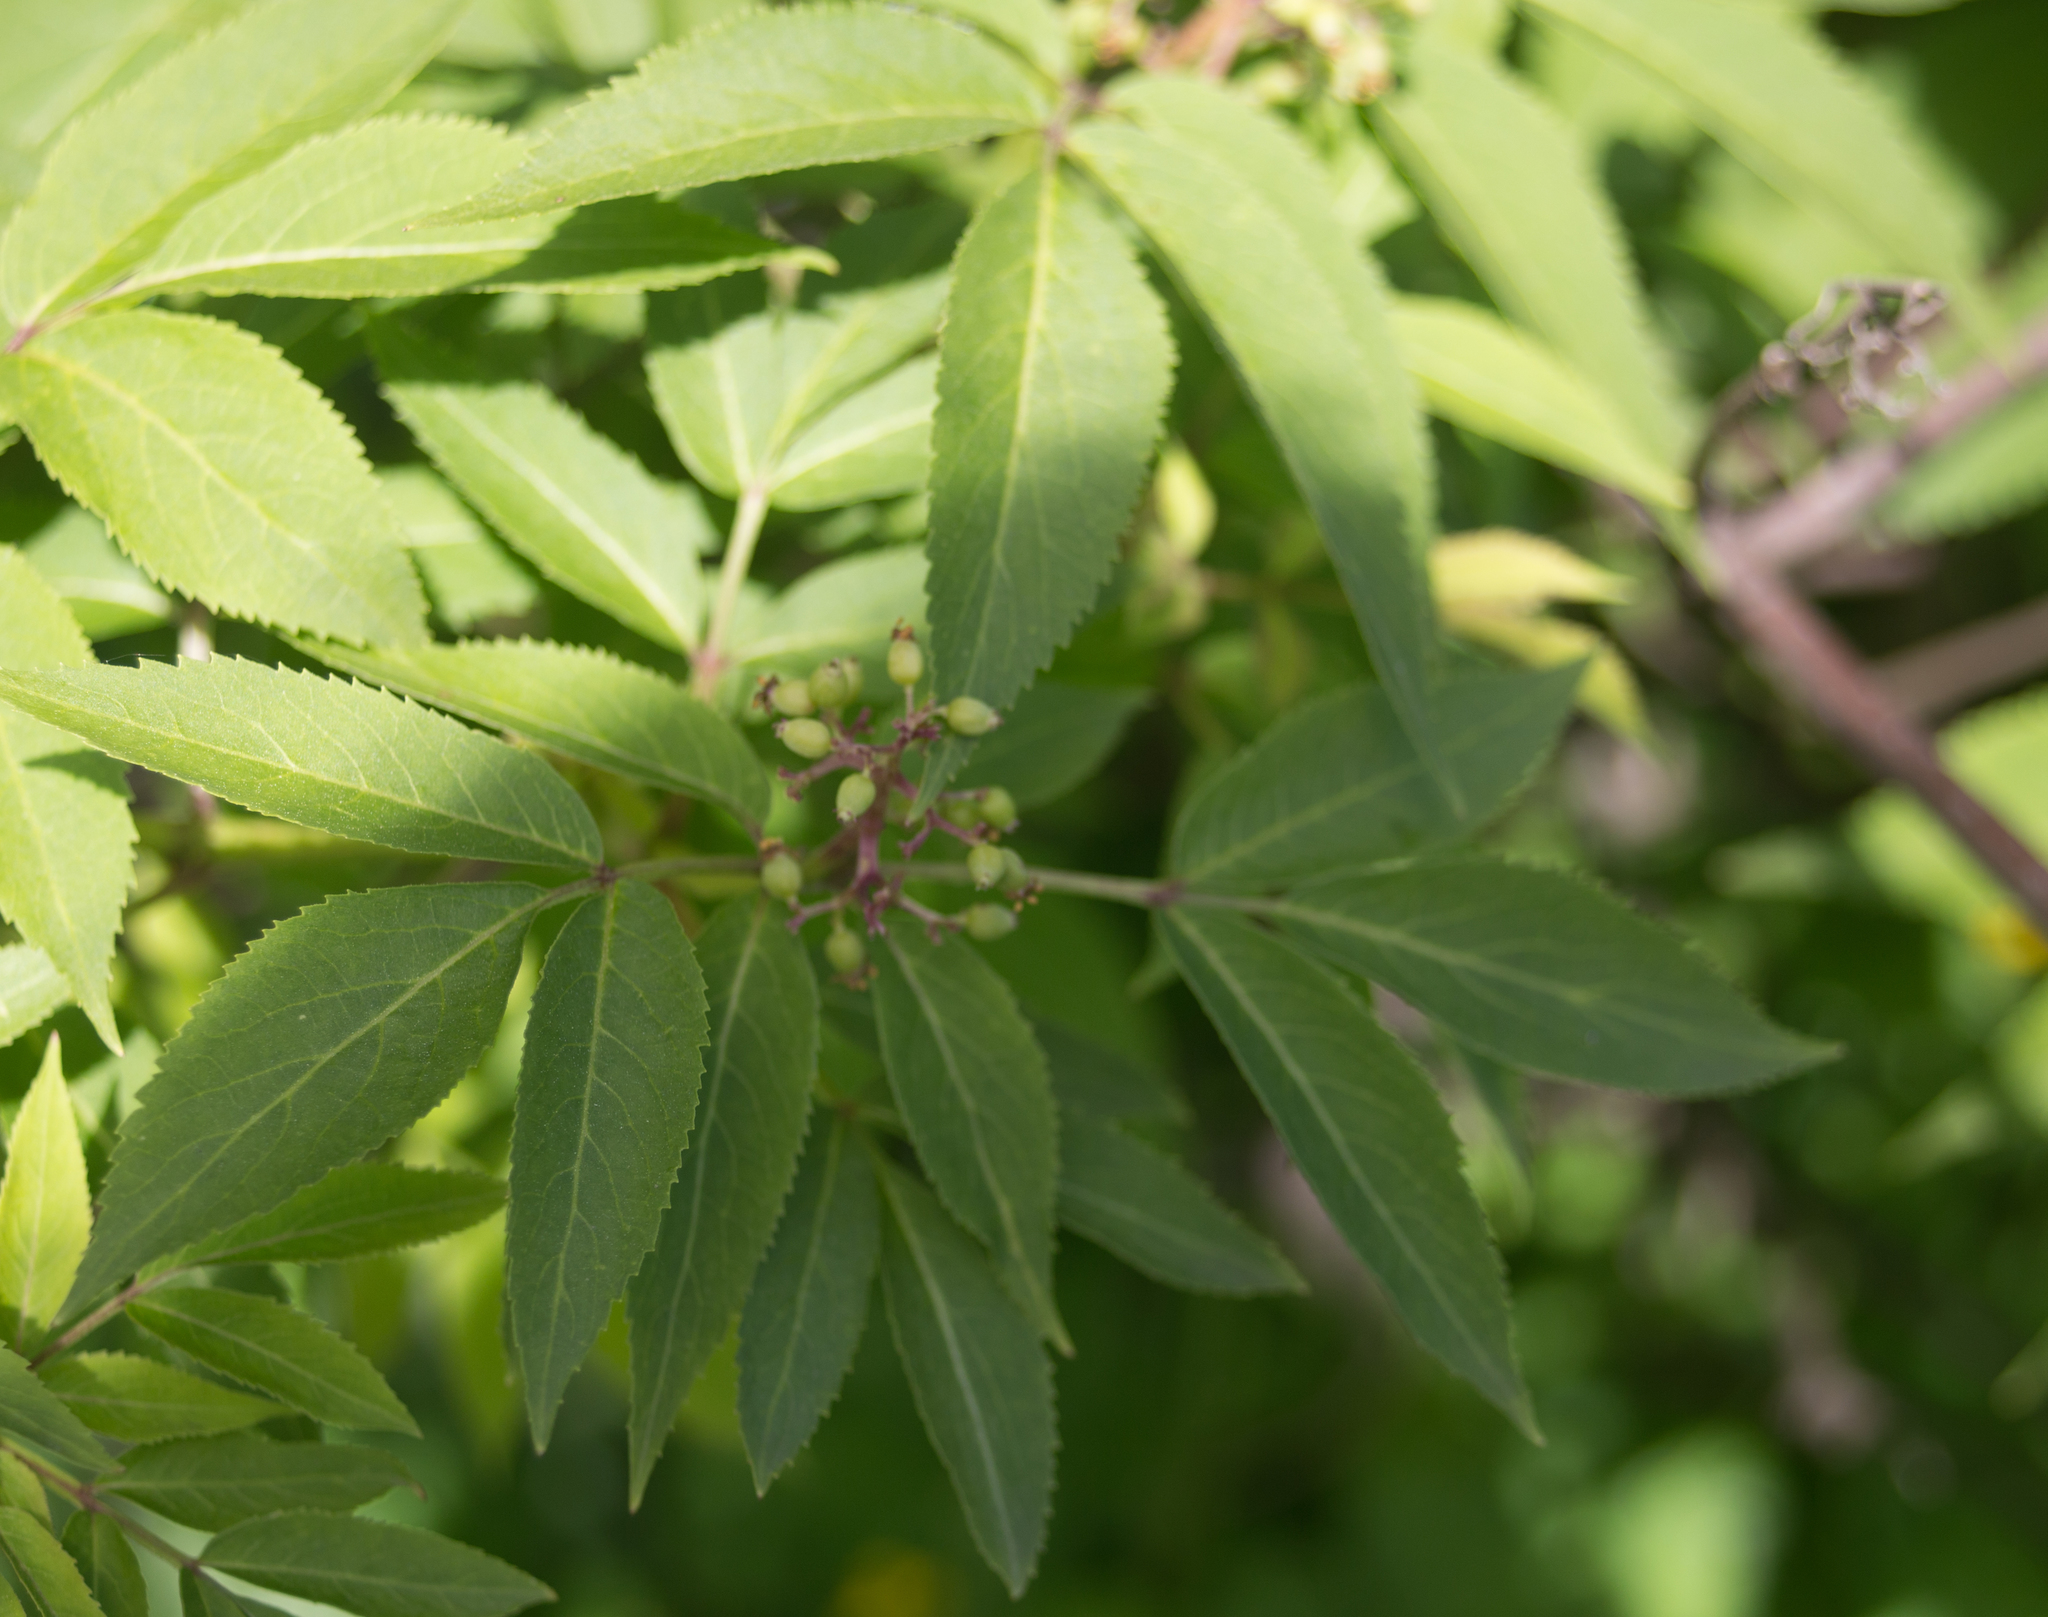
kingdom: Plantae
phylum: Tracheophyta
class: Magnoliopsida
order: Dipsacales
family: Viburnaceae
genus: Sambucus
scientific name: Sambucus racemosa
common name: Red-berried elder
